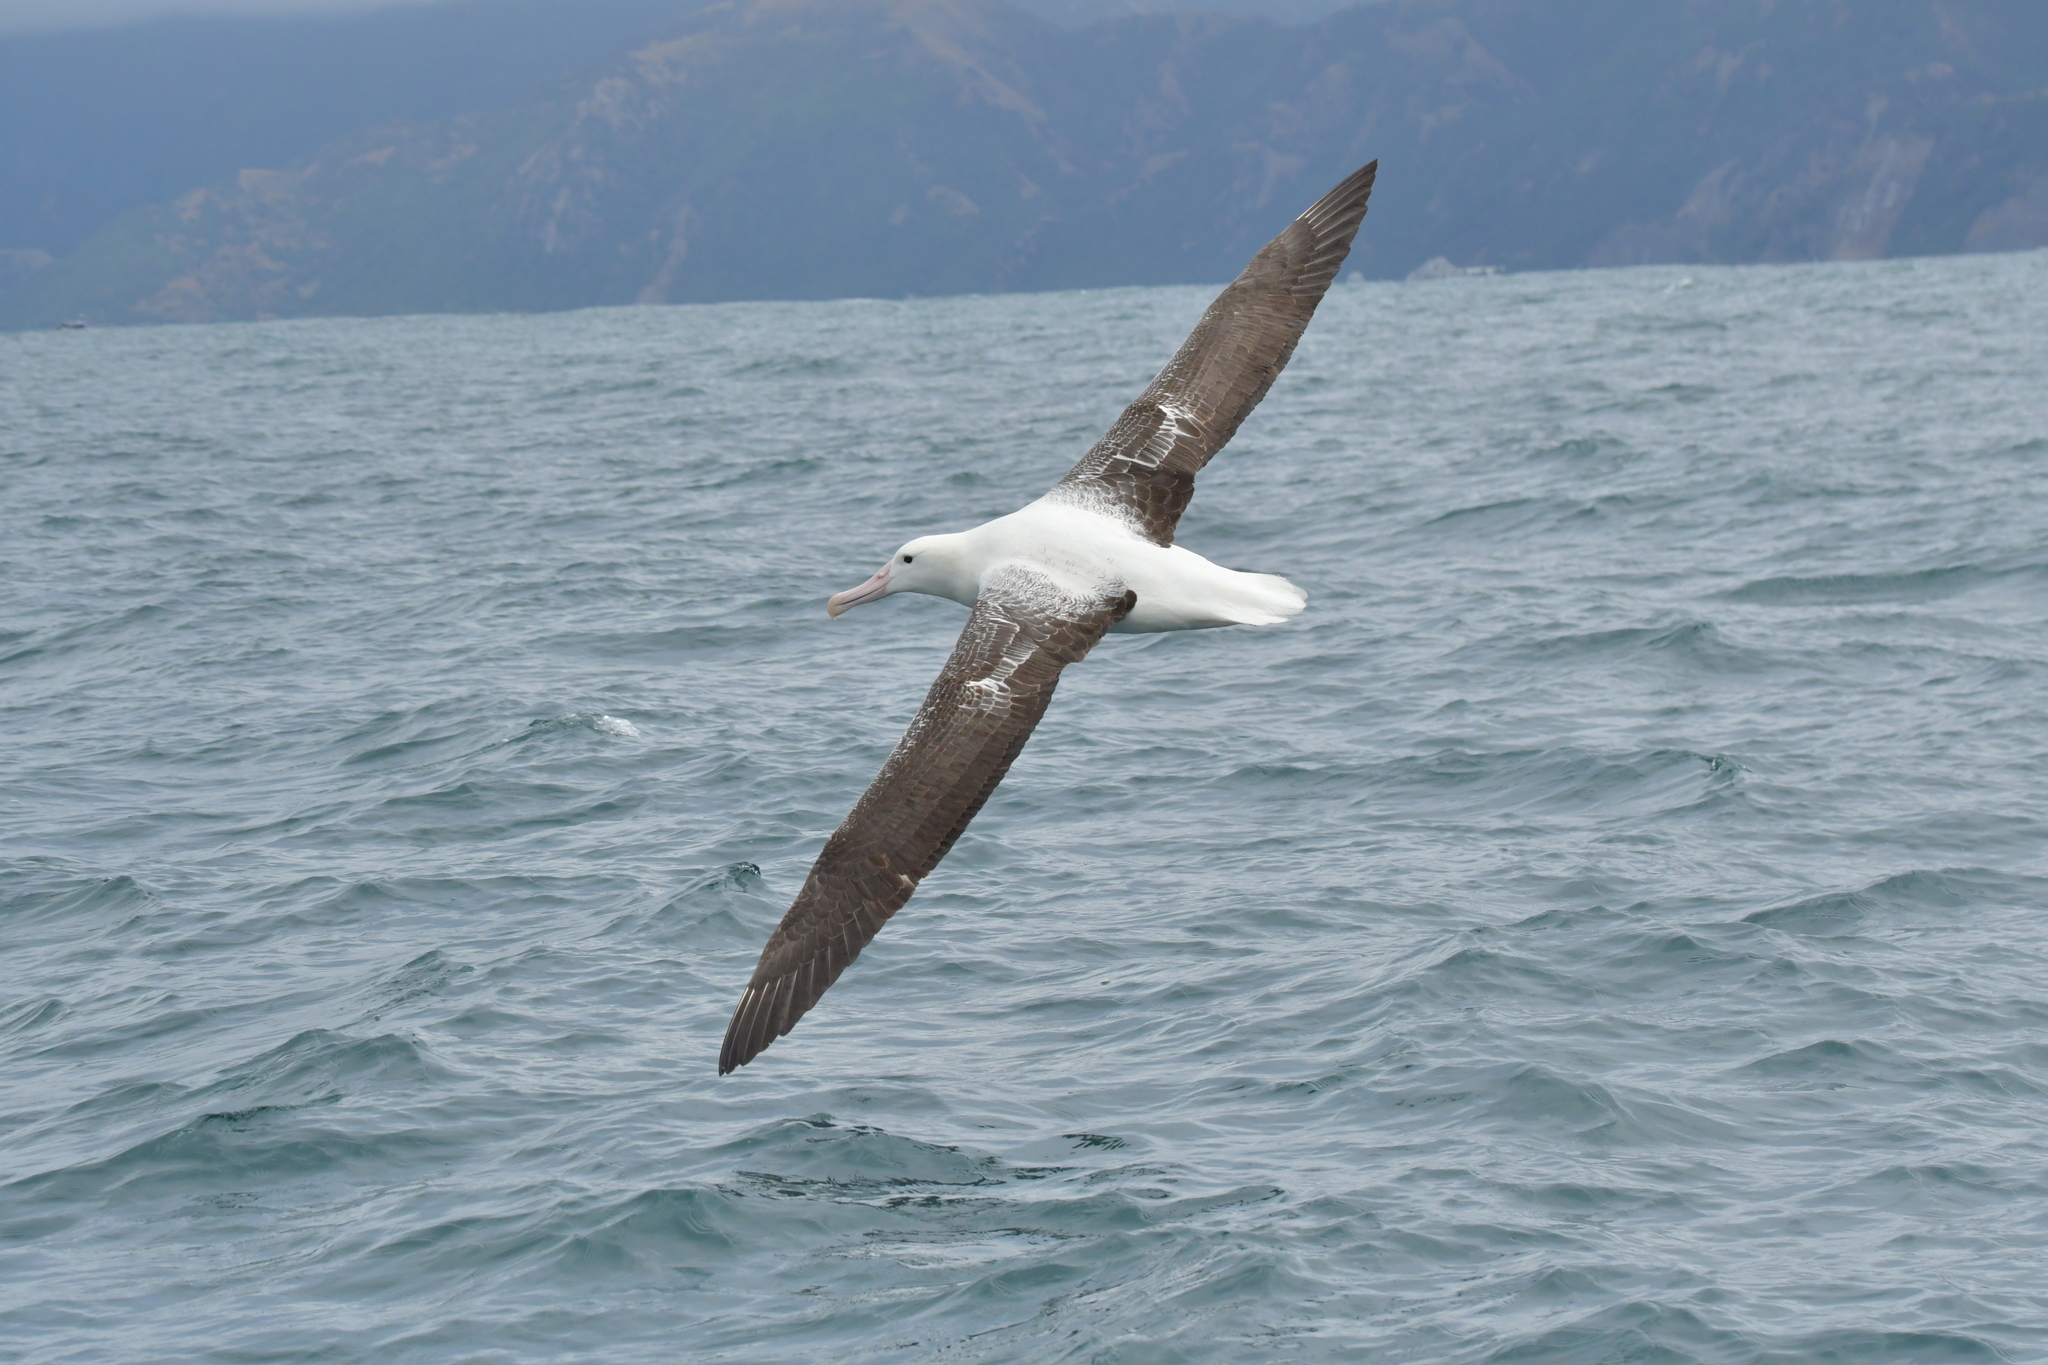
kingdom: Animalia
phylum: Chordata
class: Aves
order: Procellariiformes
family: Diomedeidae
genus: Diomedea
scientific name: Diomedea epomophora
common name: Southern royal albatross
